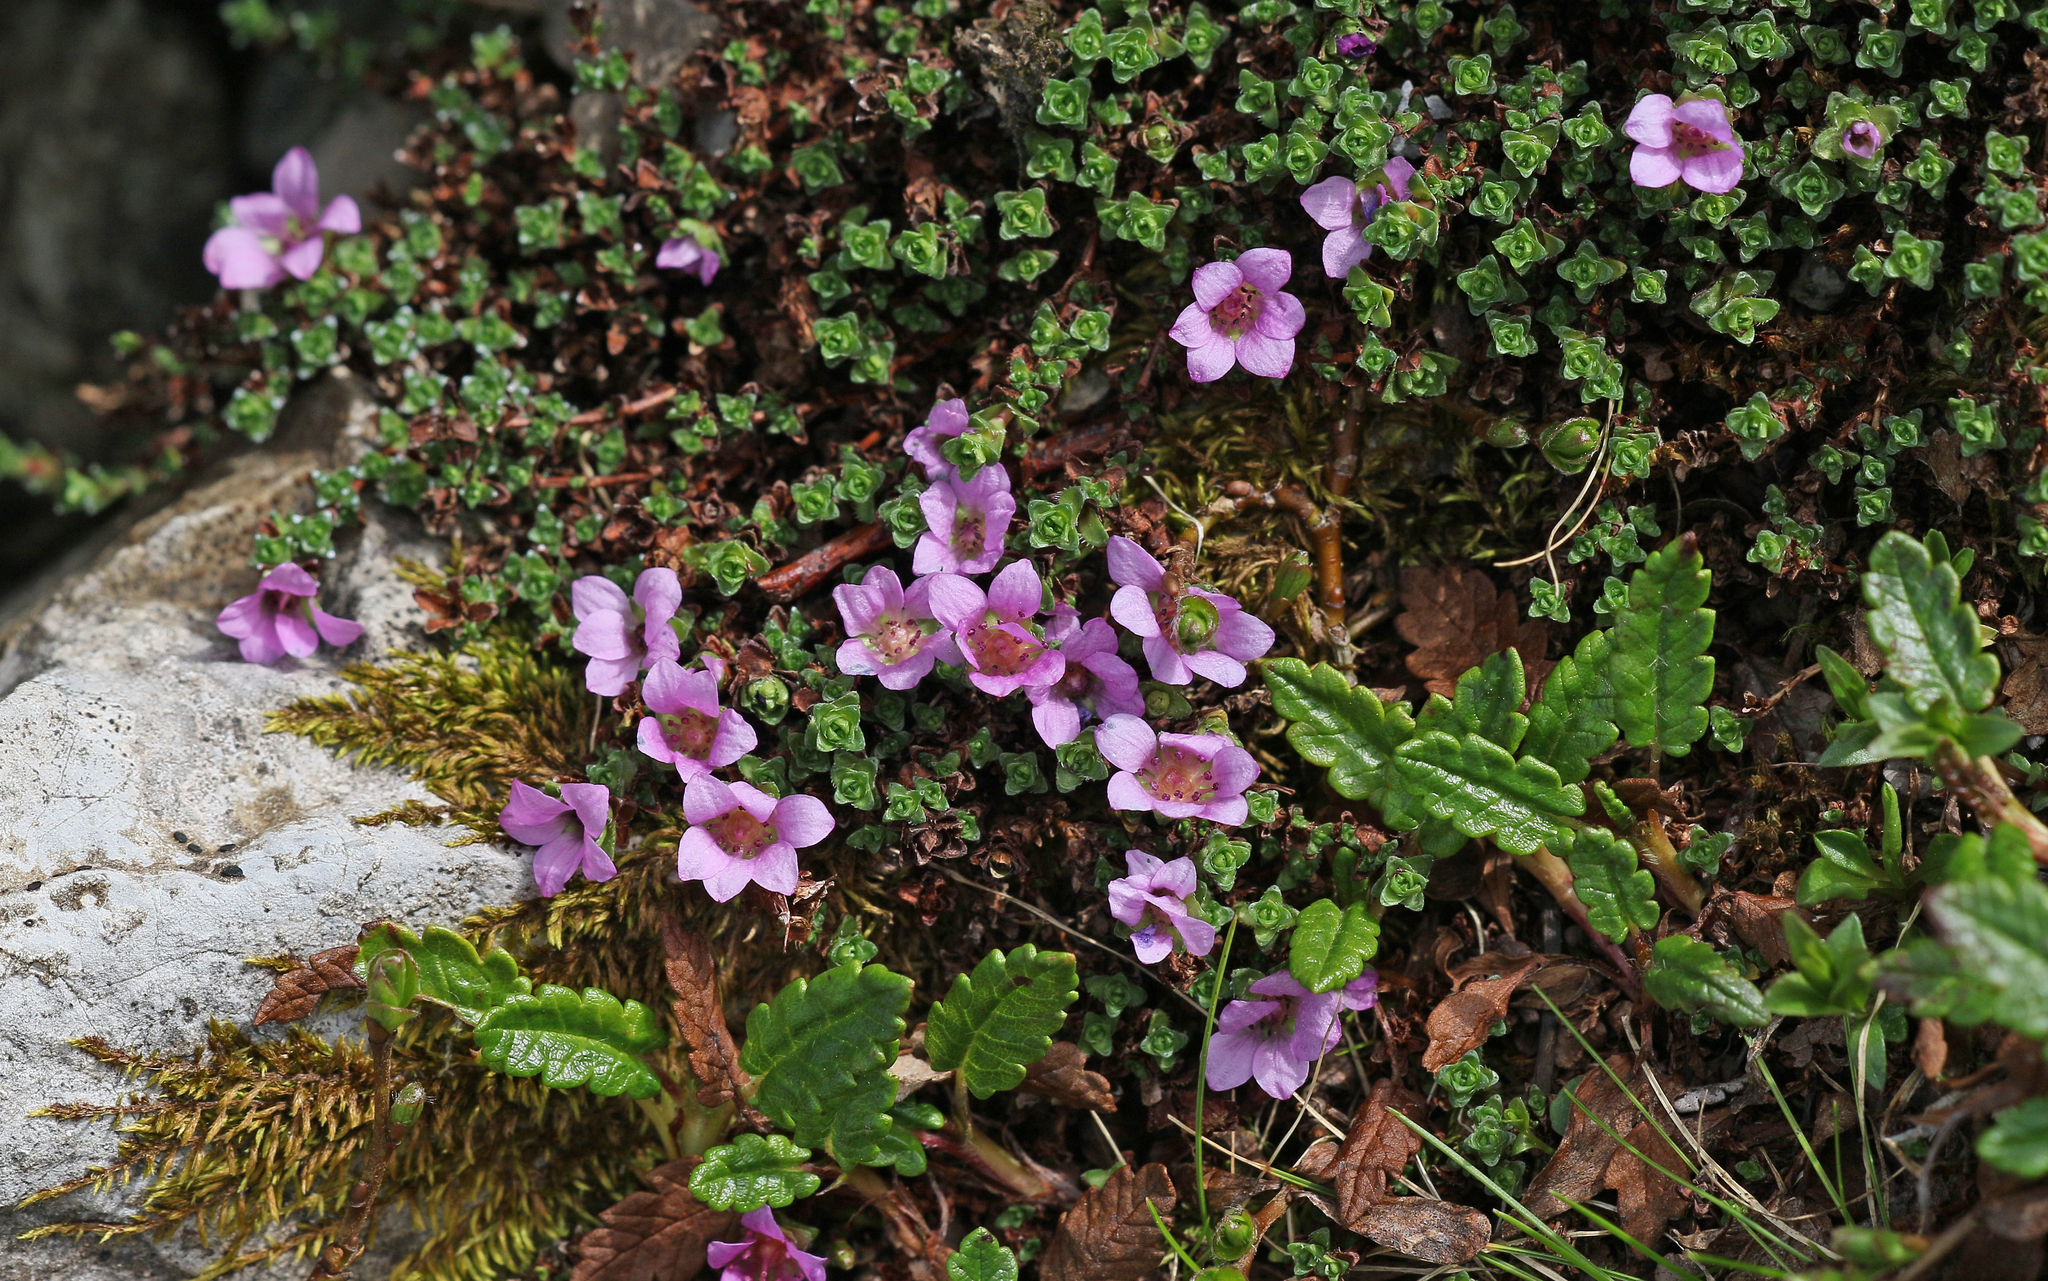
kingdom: Plantae
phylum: Tracheophyta
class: Magnoliopsida
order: Saxifragales
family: Saxifragaceae
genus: Saxifraga
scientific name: Saxifraga oppositifolia
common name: Purple saxifrage
